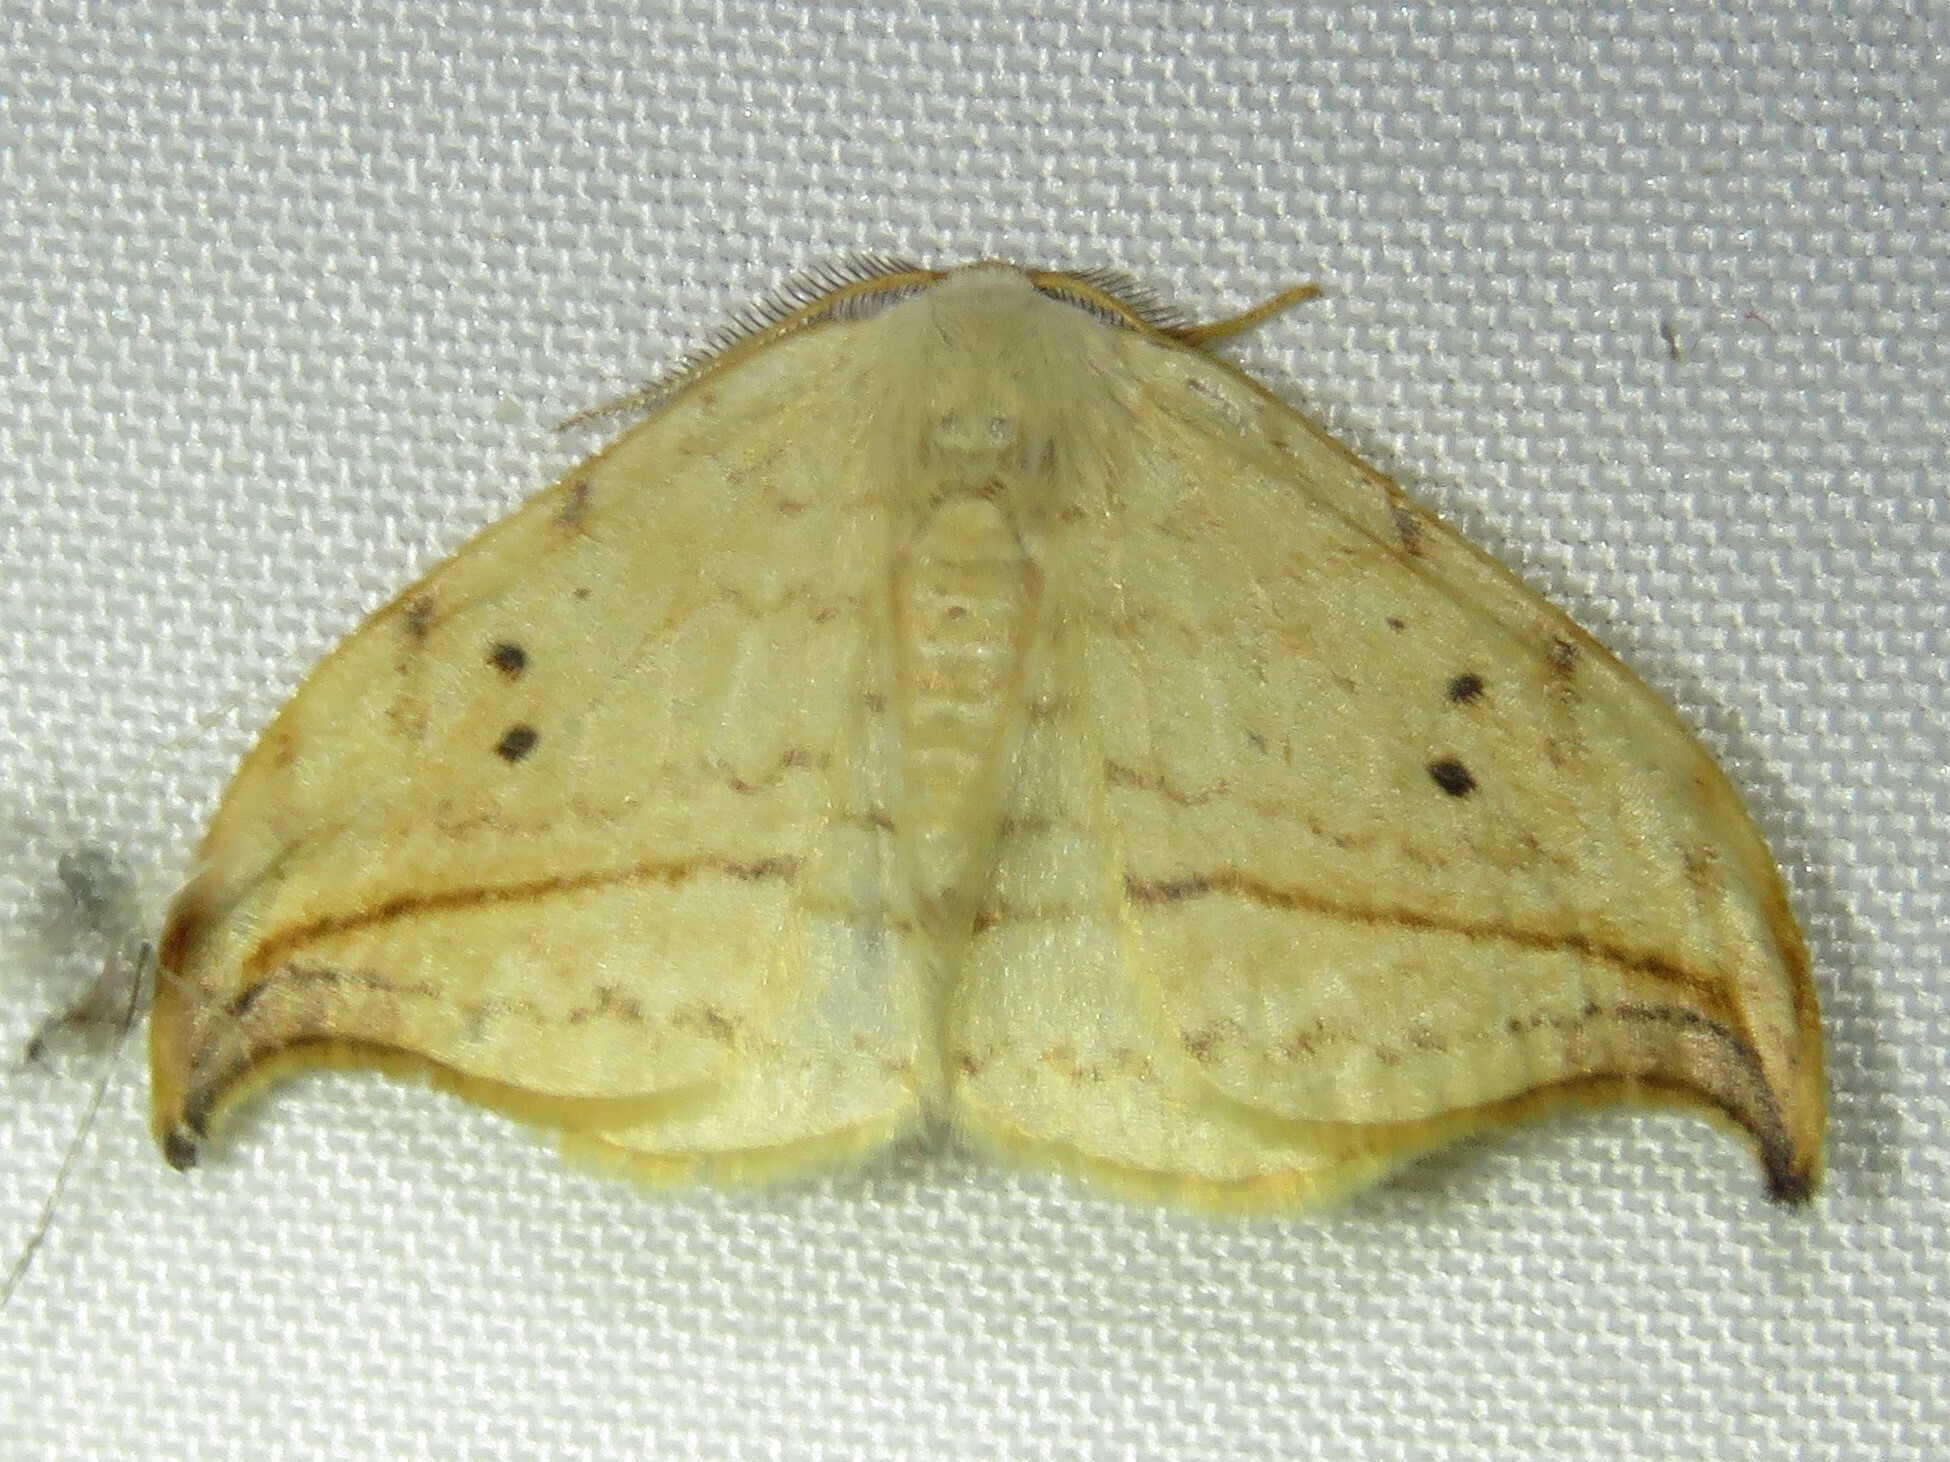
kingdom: Animalia
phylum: Arthropoda
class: Insecta
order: Lepidoptera
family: Drepanidae
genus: Drepana
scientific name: Drepana arcuata
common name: Arched hooktip moth
